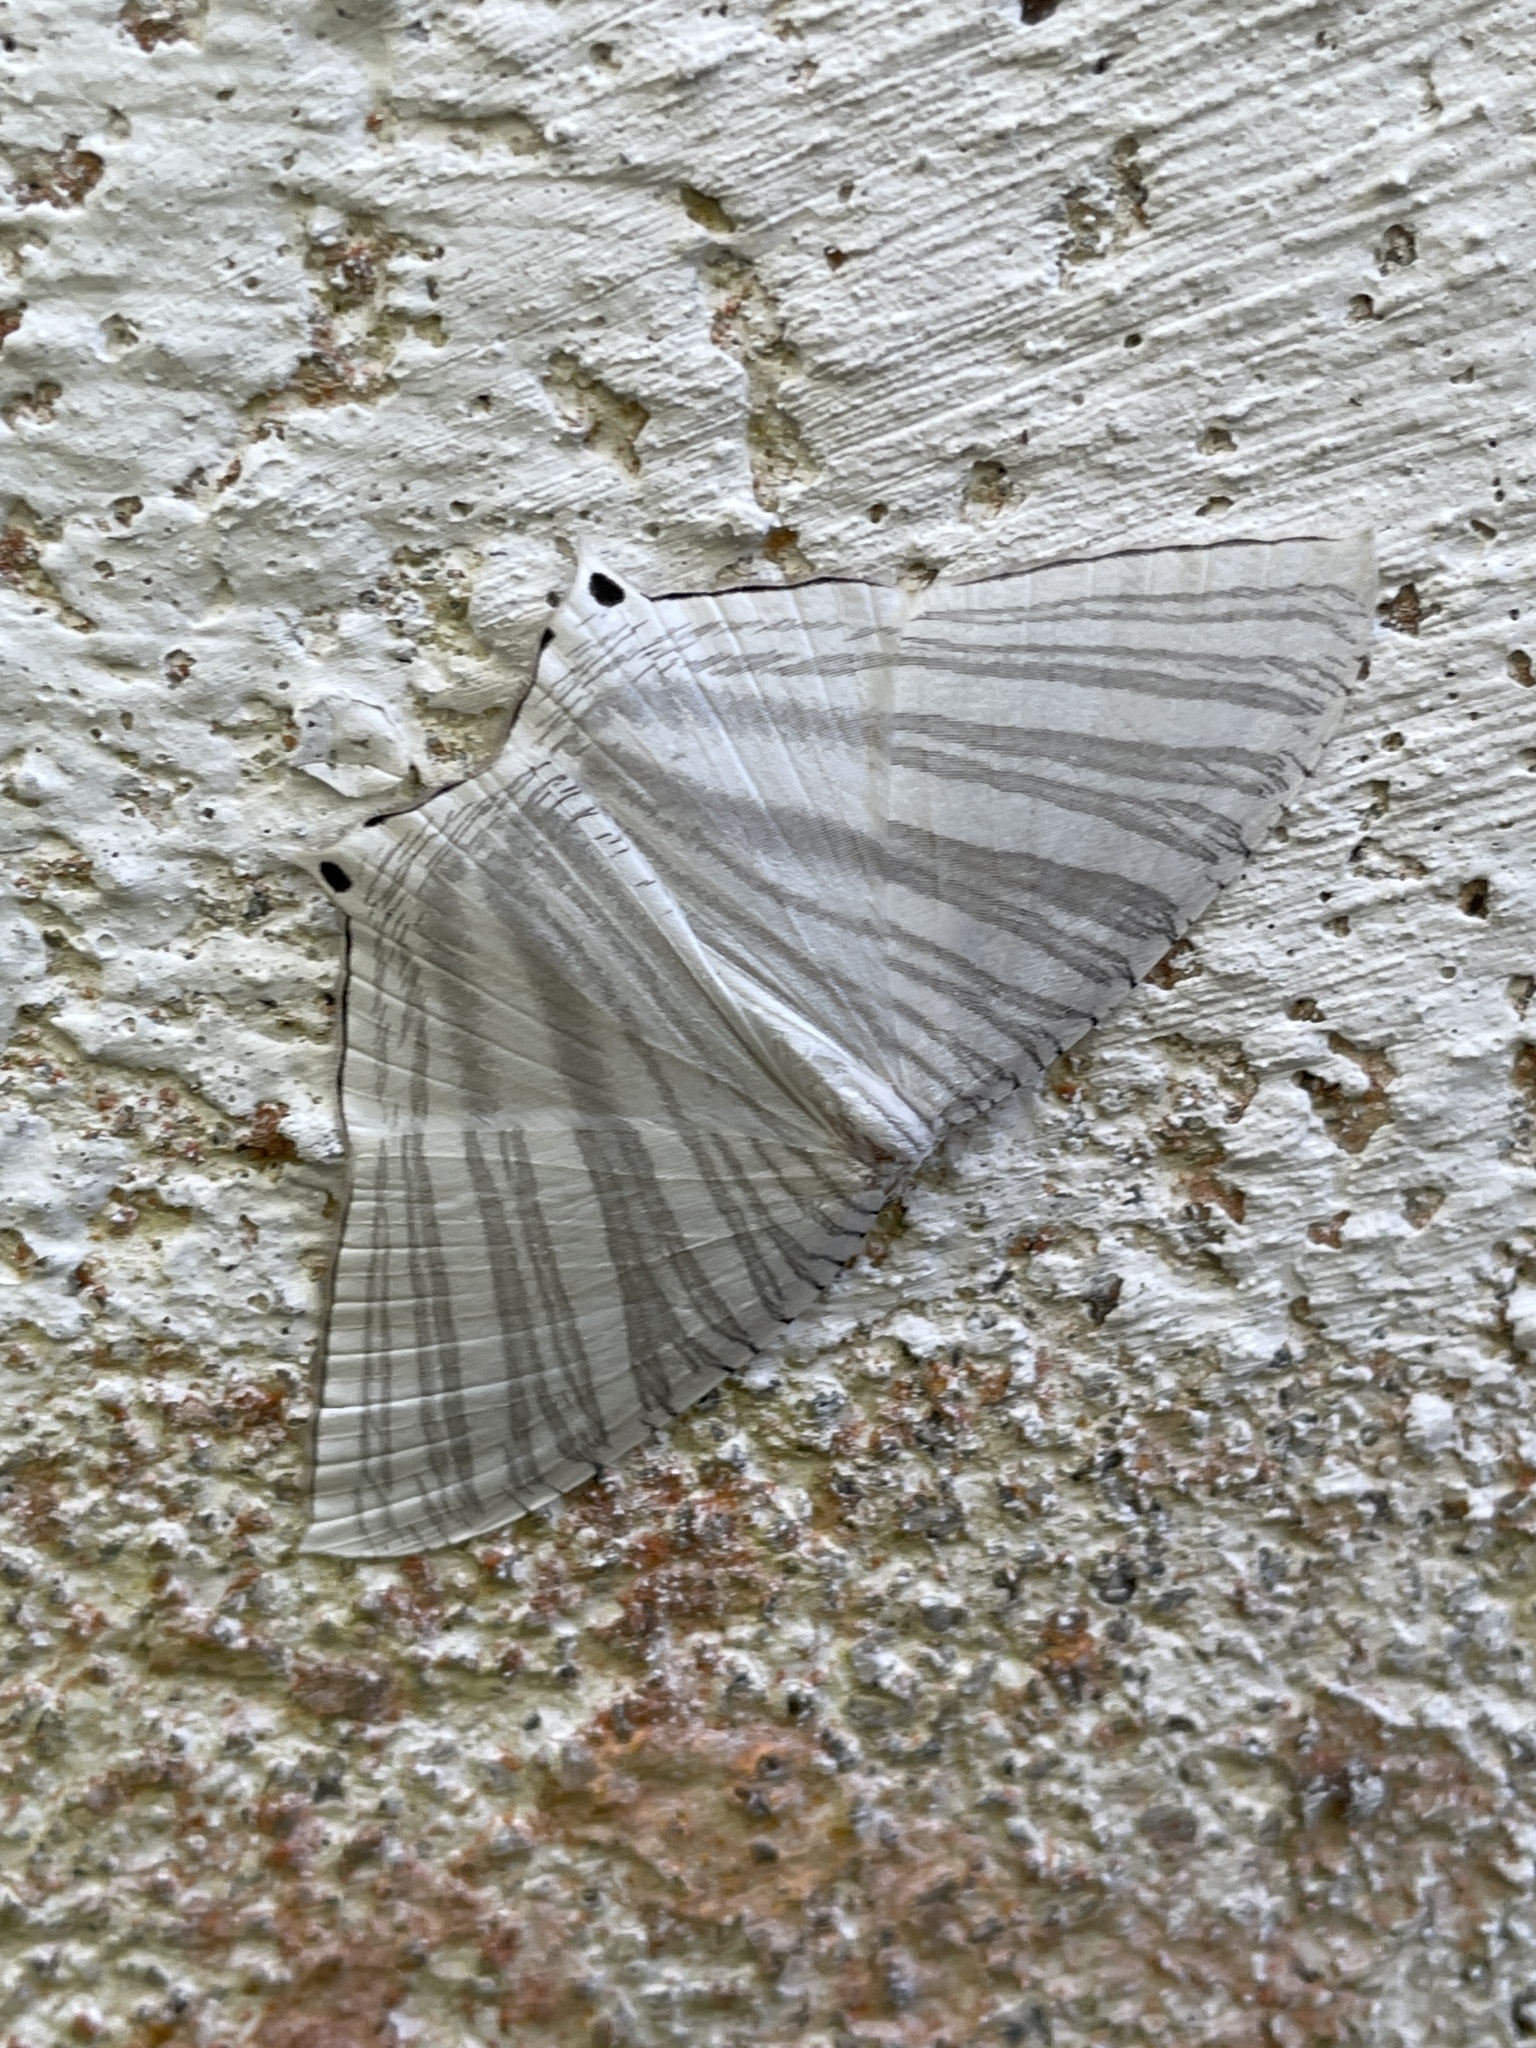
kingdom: Animalia
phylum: Arthropoda
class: Insecta
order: Lepidoptera
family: Uraniidae
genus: Pseudomicronia
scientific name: Pseudomicronia advocataria
